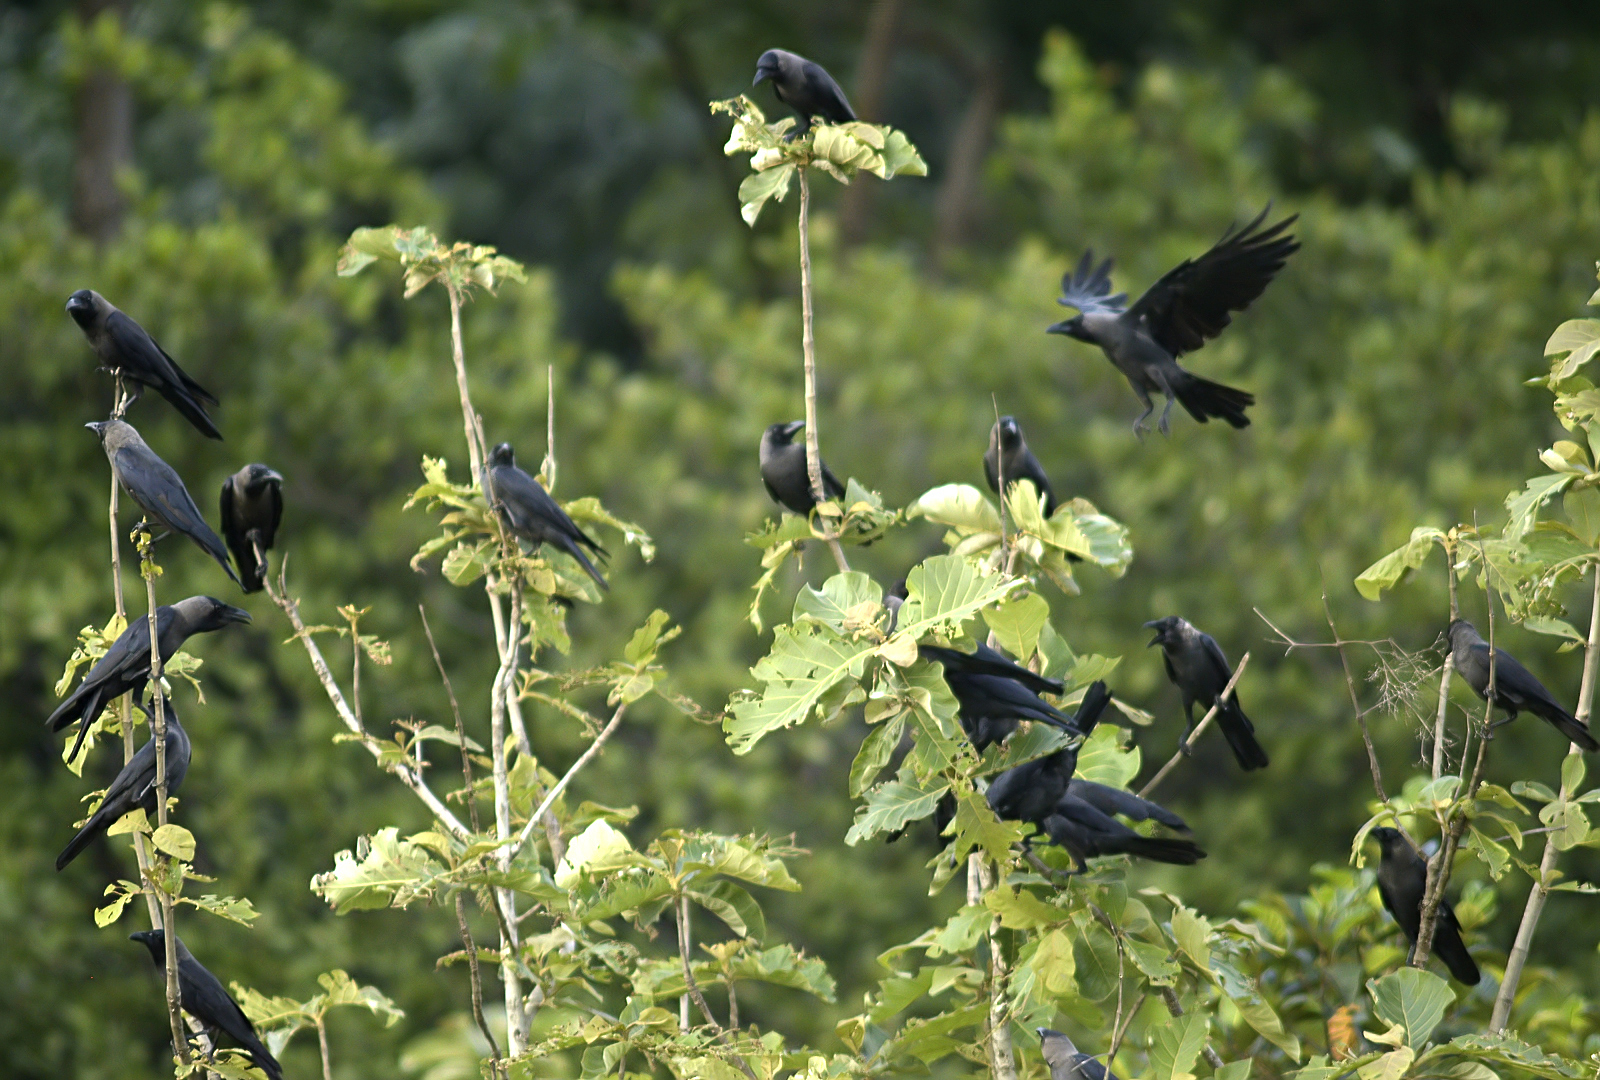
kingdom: Animalia
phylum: Chordata
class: Aves
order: Passeriformes
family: Corvidae
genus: Corvus
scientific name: Corvus splendens
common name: House crow
